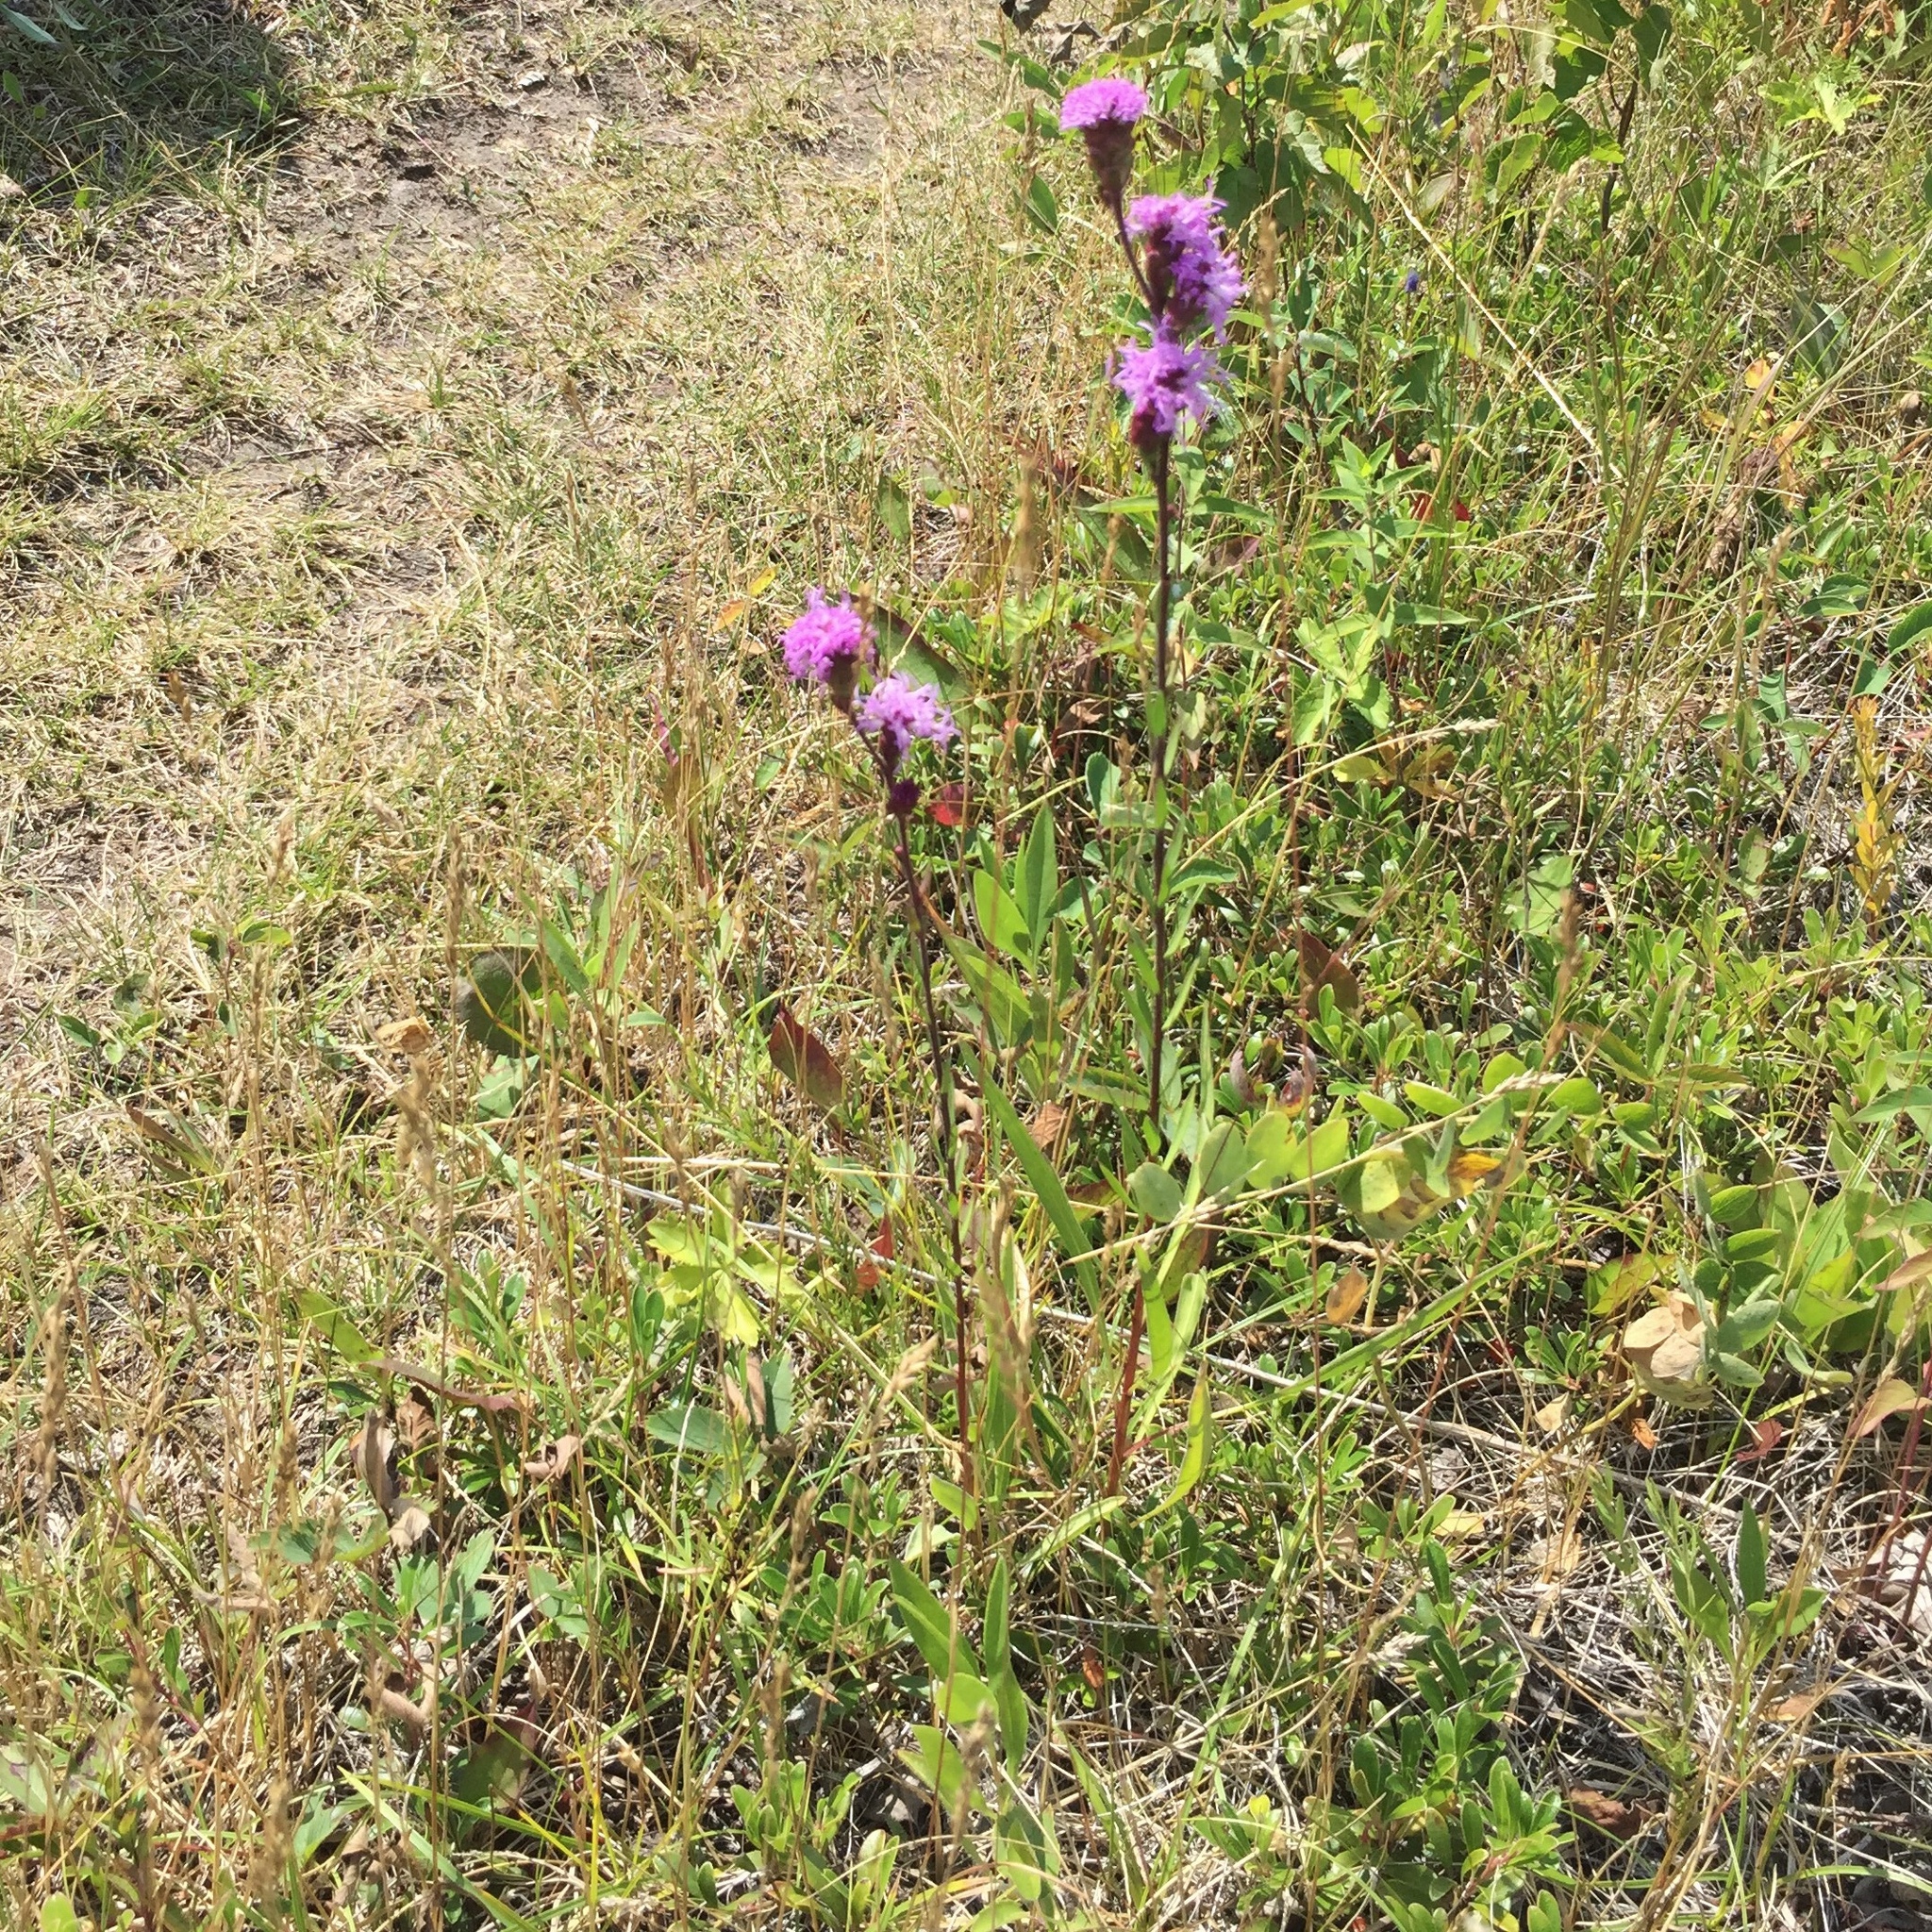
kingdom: Plantae
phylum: Tracheophyta
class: Magnoliopsida
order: Asterales
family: Asteraceae
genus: Liatris
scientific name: Liatris ligulistylis
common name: Northern plains gayfeather
